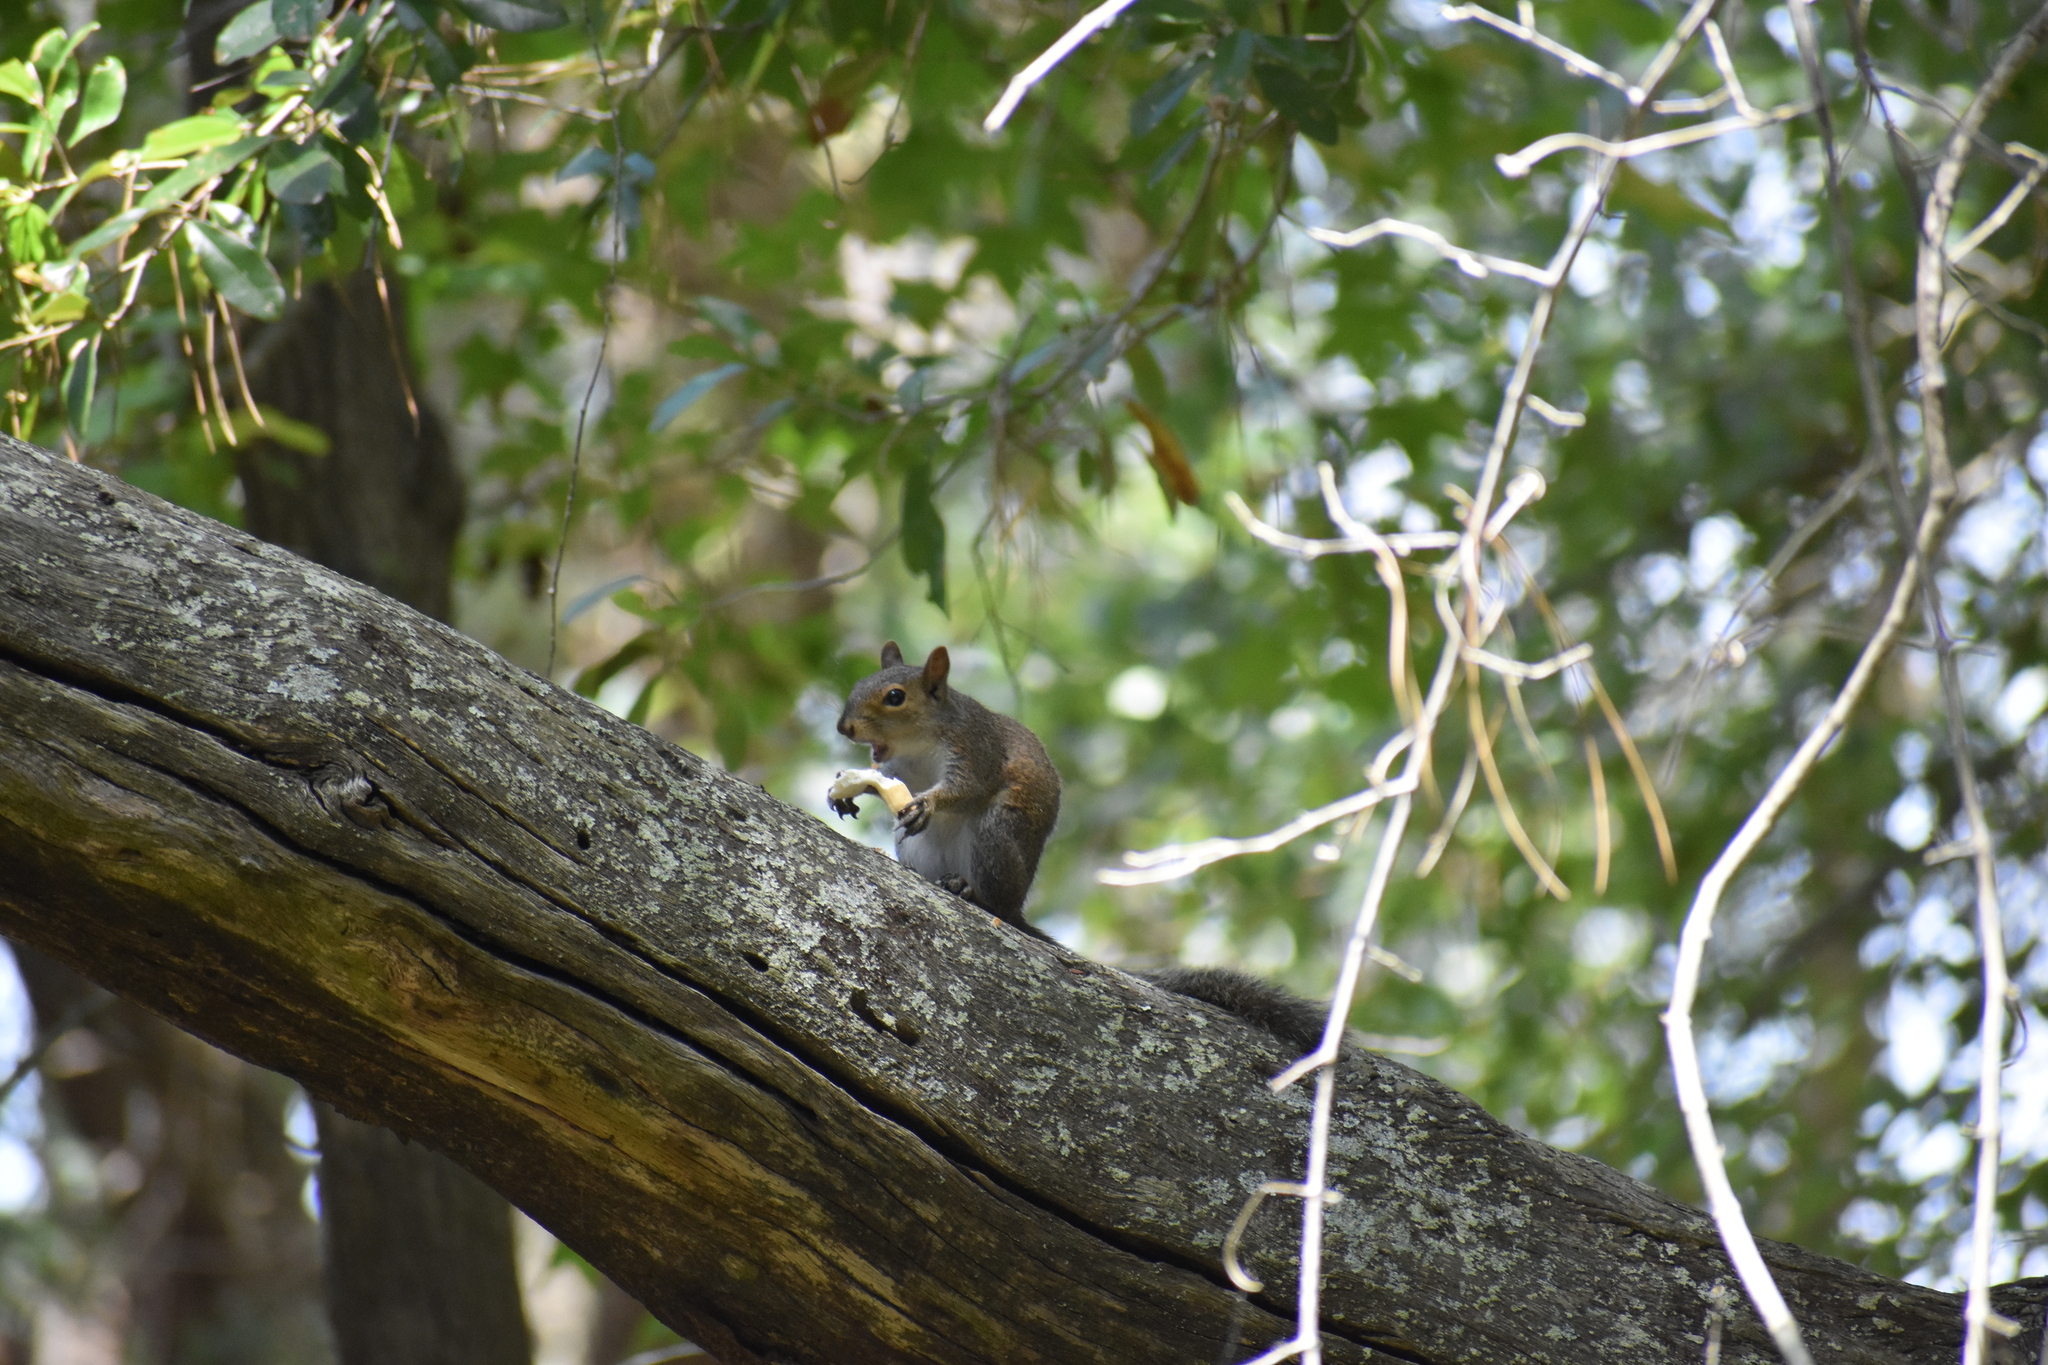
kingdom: Animalia
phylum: Chordata
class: Mammalia
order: Rodentia
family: Sciuridae
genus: Sciurus
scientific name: Sciurus carolinensis
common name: Eastern gray squirrel
